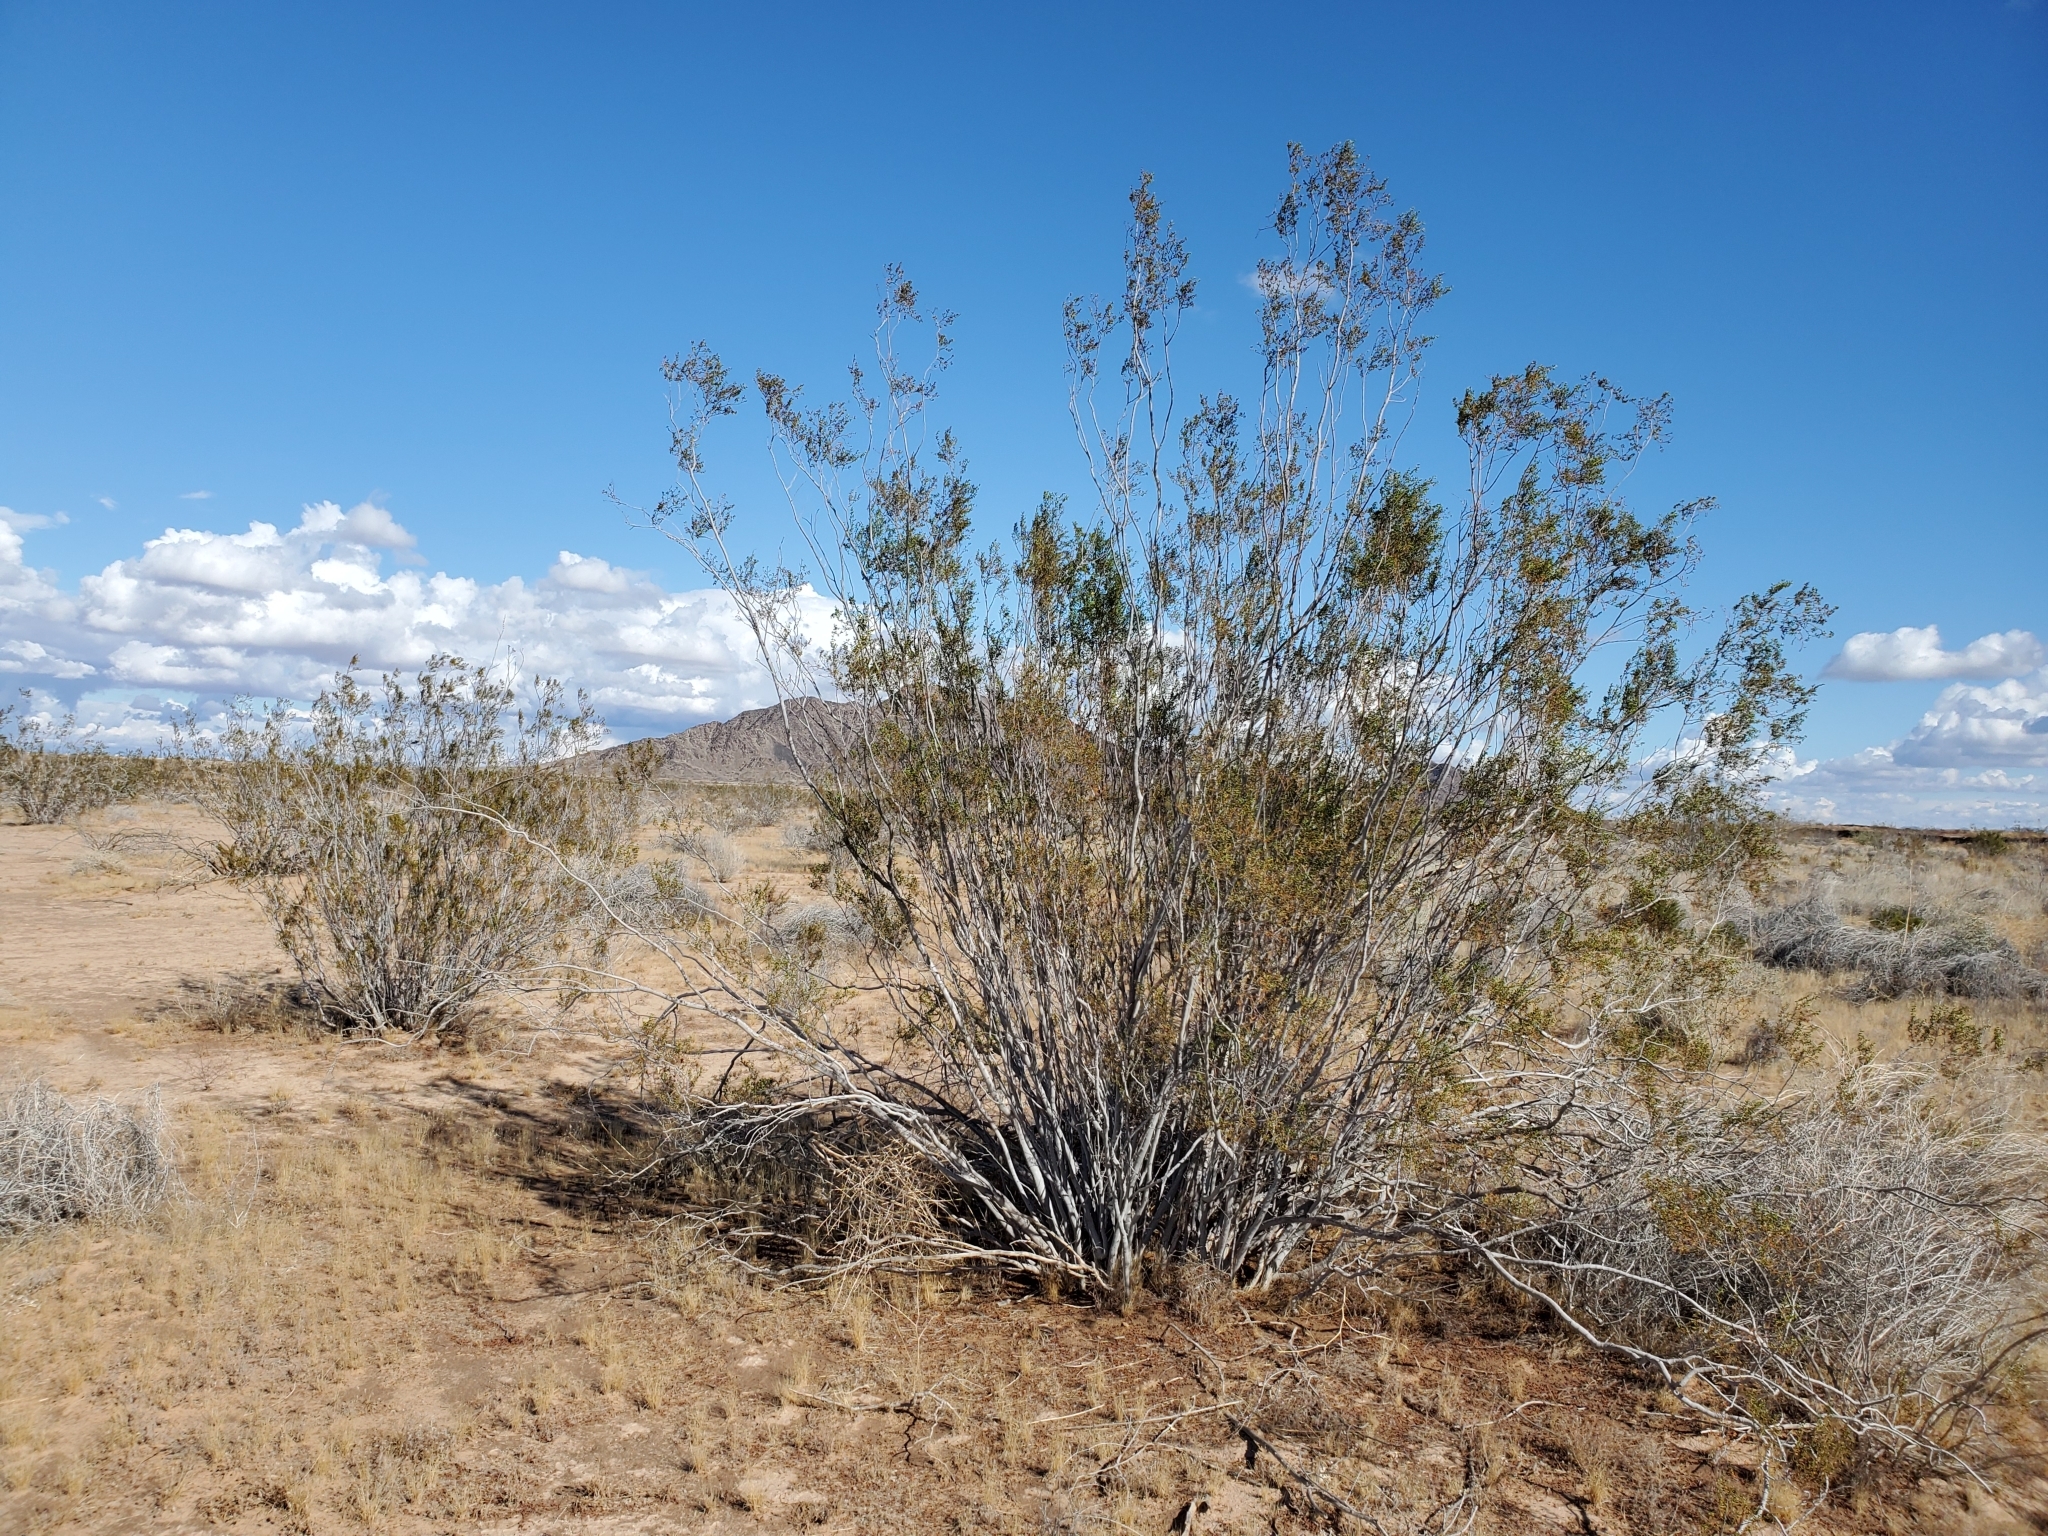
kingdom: Plantae
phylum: Tracheophyta
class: Magnoliopsida
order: Zygophyllales
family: Zygophyllaceae
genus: Larrea
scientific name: Larrea tridentata
